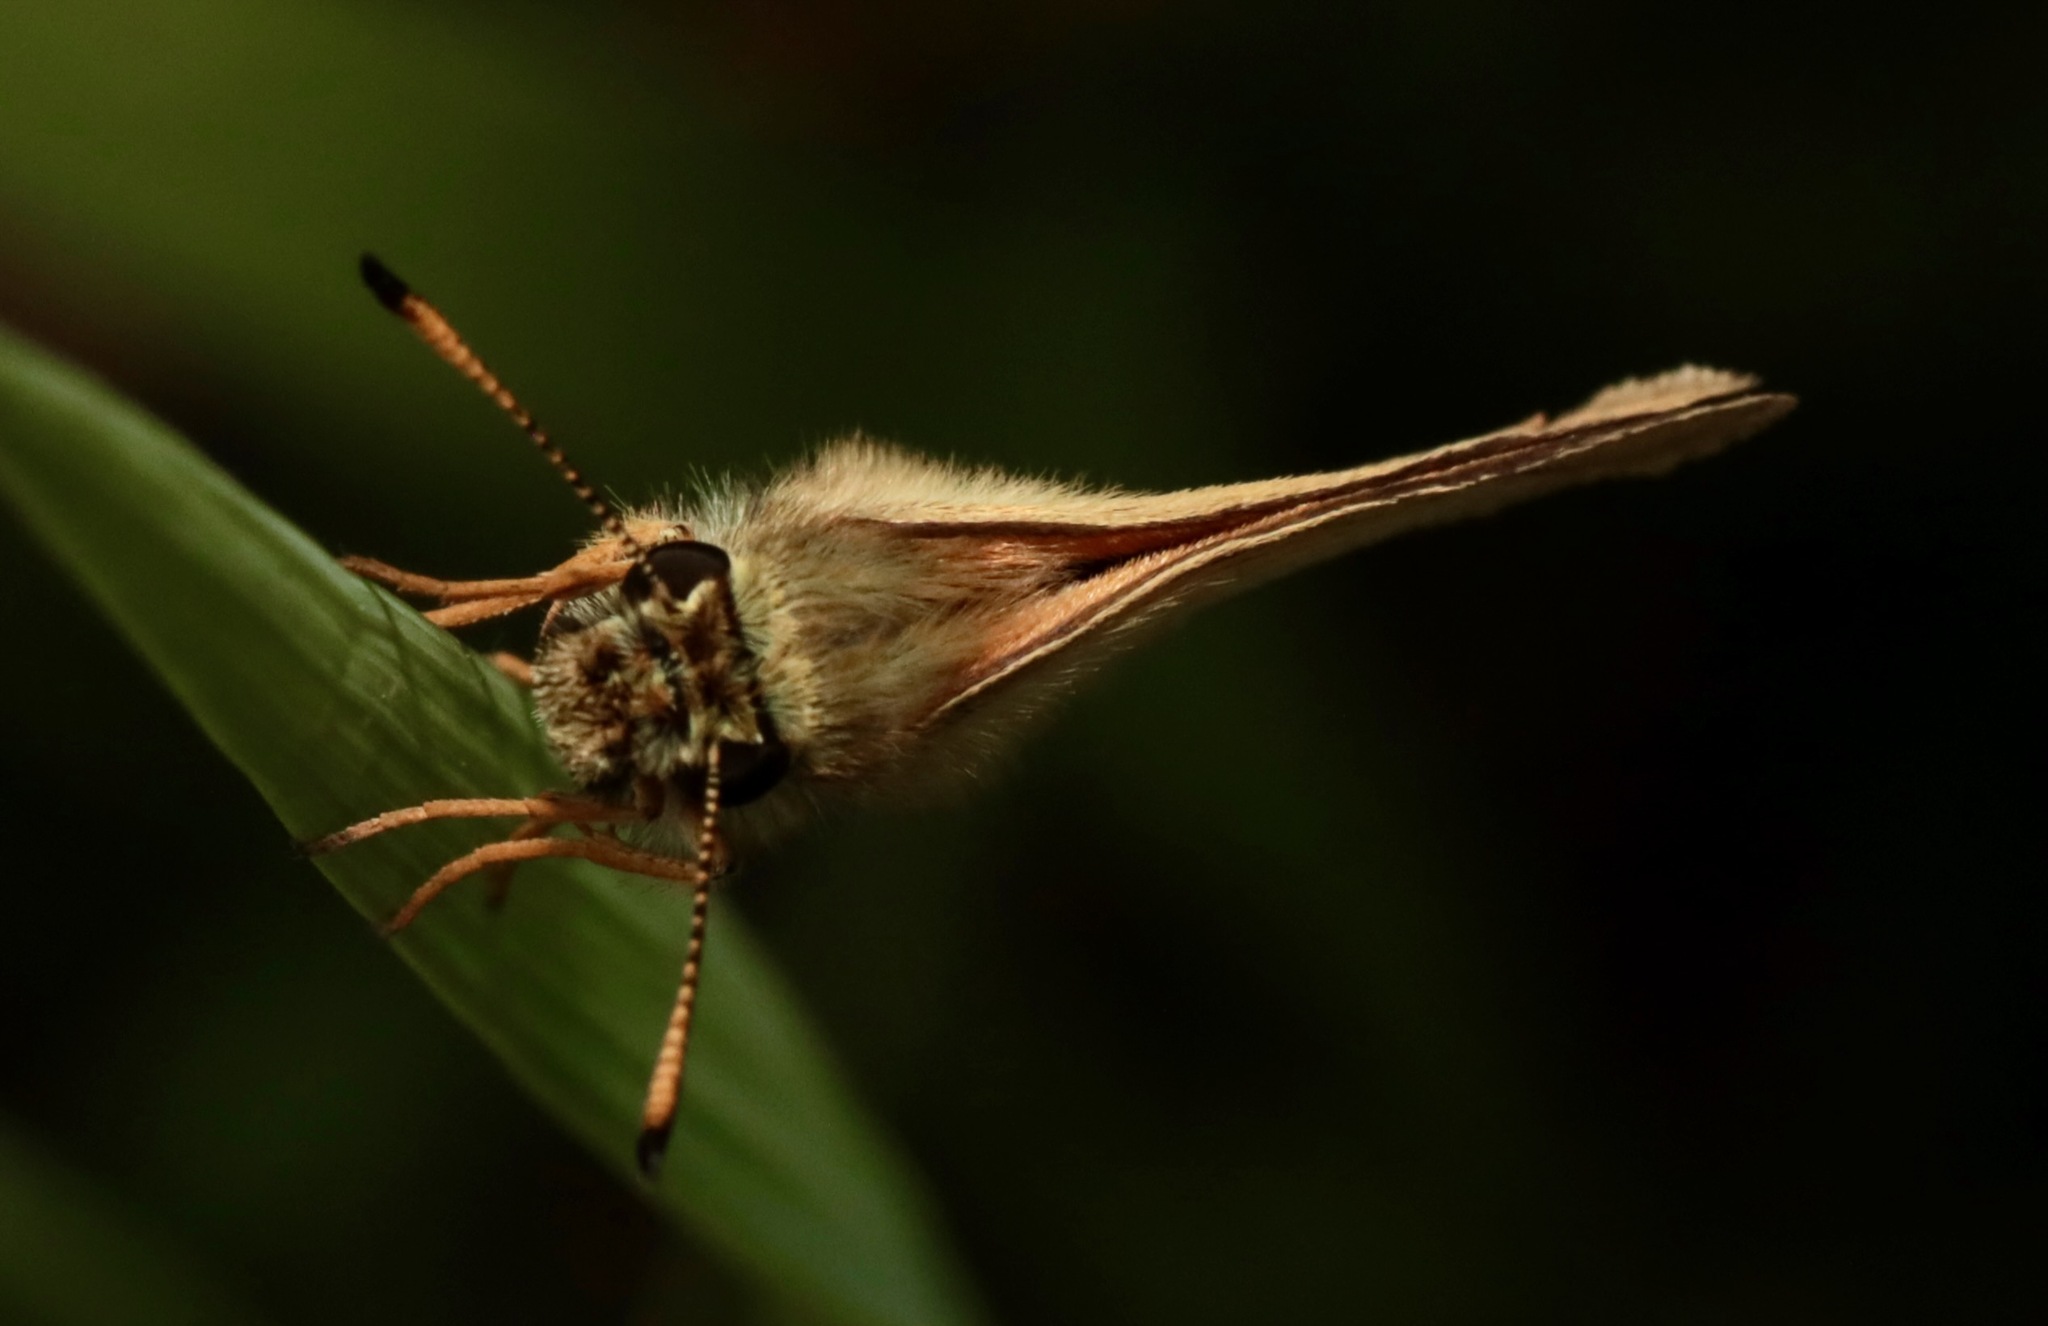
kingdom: Animalia
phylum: Arthropoda
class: Insecta
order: Lepidoptera
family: Hesperiidae
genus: Thymelicus
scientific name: Thymelicus lineola
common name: Essex skipper
